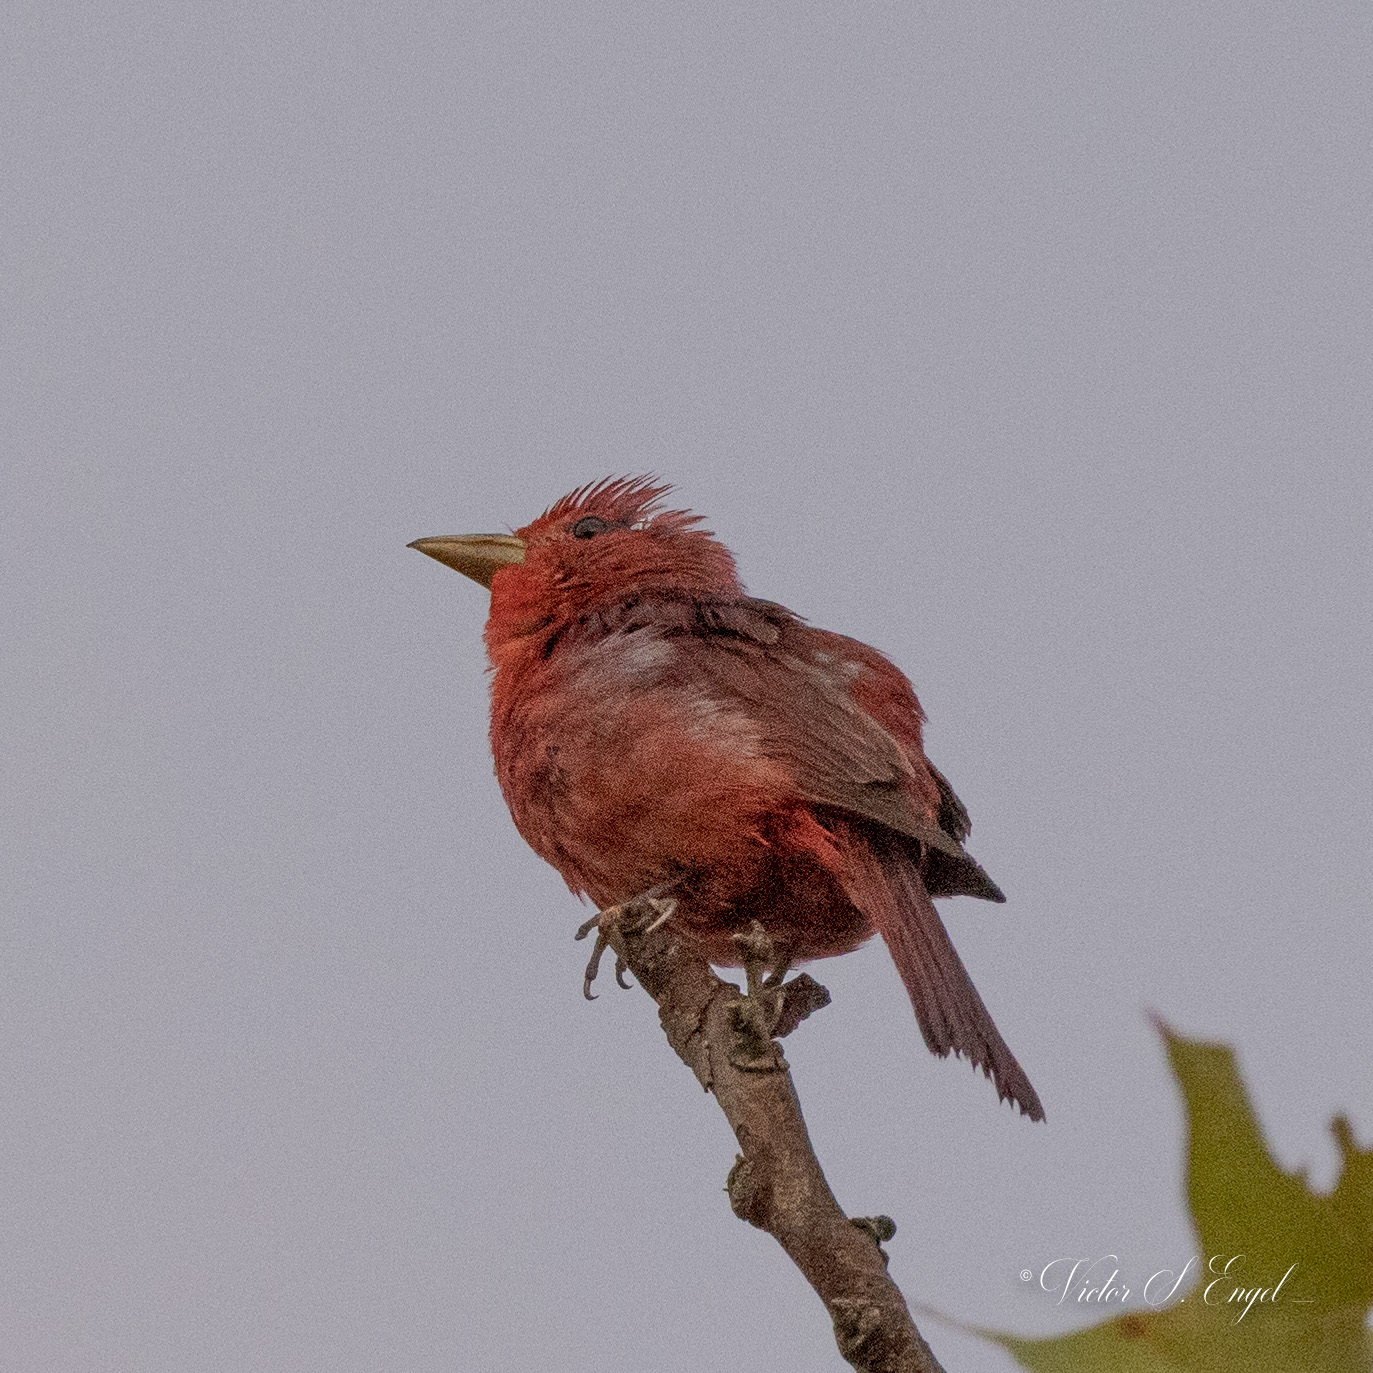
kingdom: Animalia
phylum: Chordata
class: Aves
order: Passeriformes
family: Cardinalidae
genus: Piranga
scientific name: Piranga rubra
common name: Summer tanager
